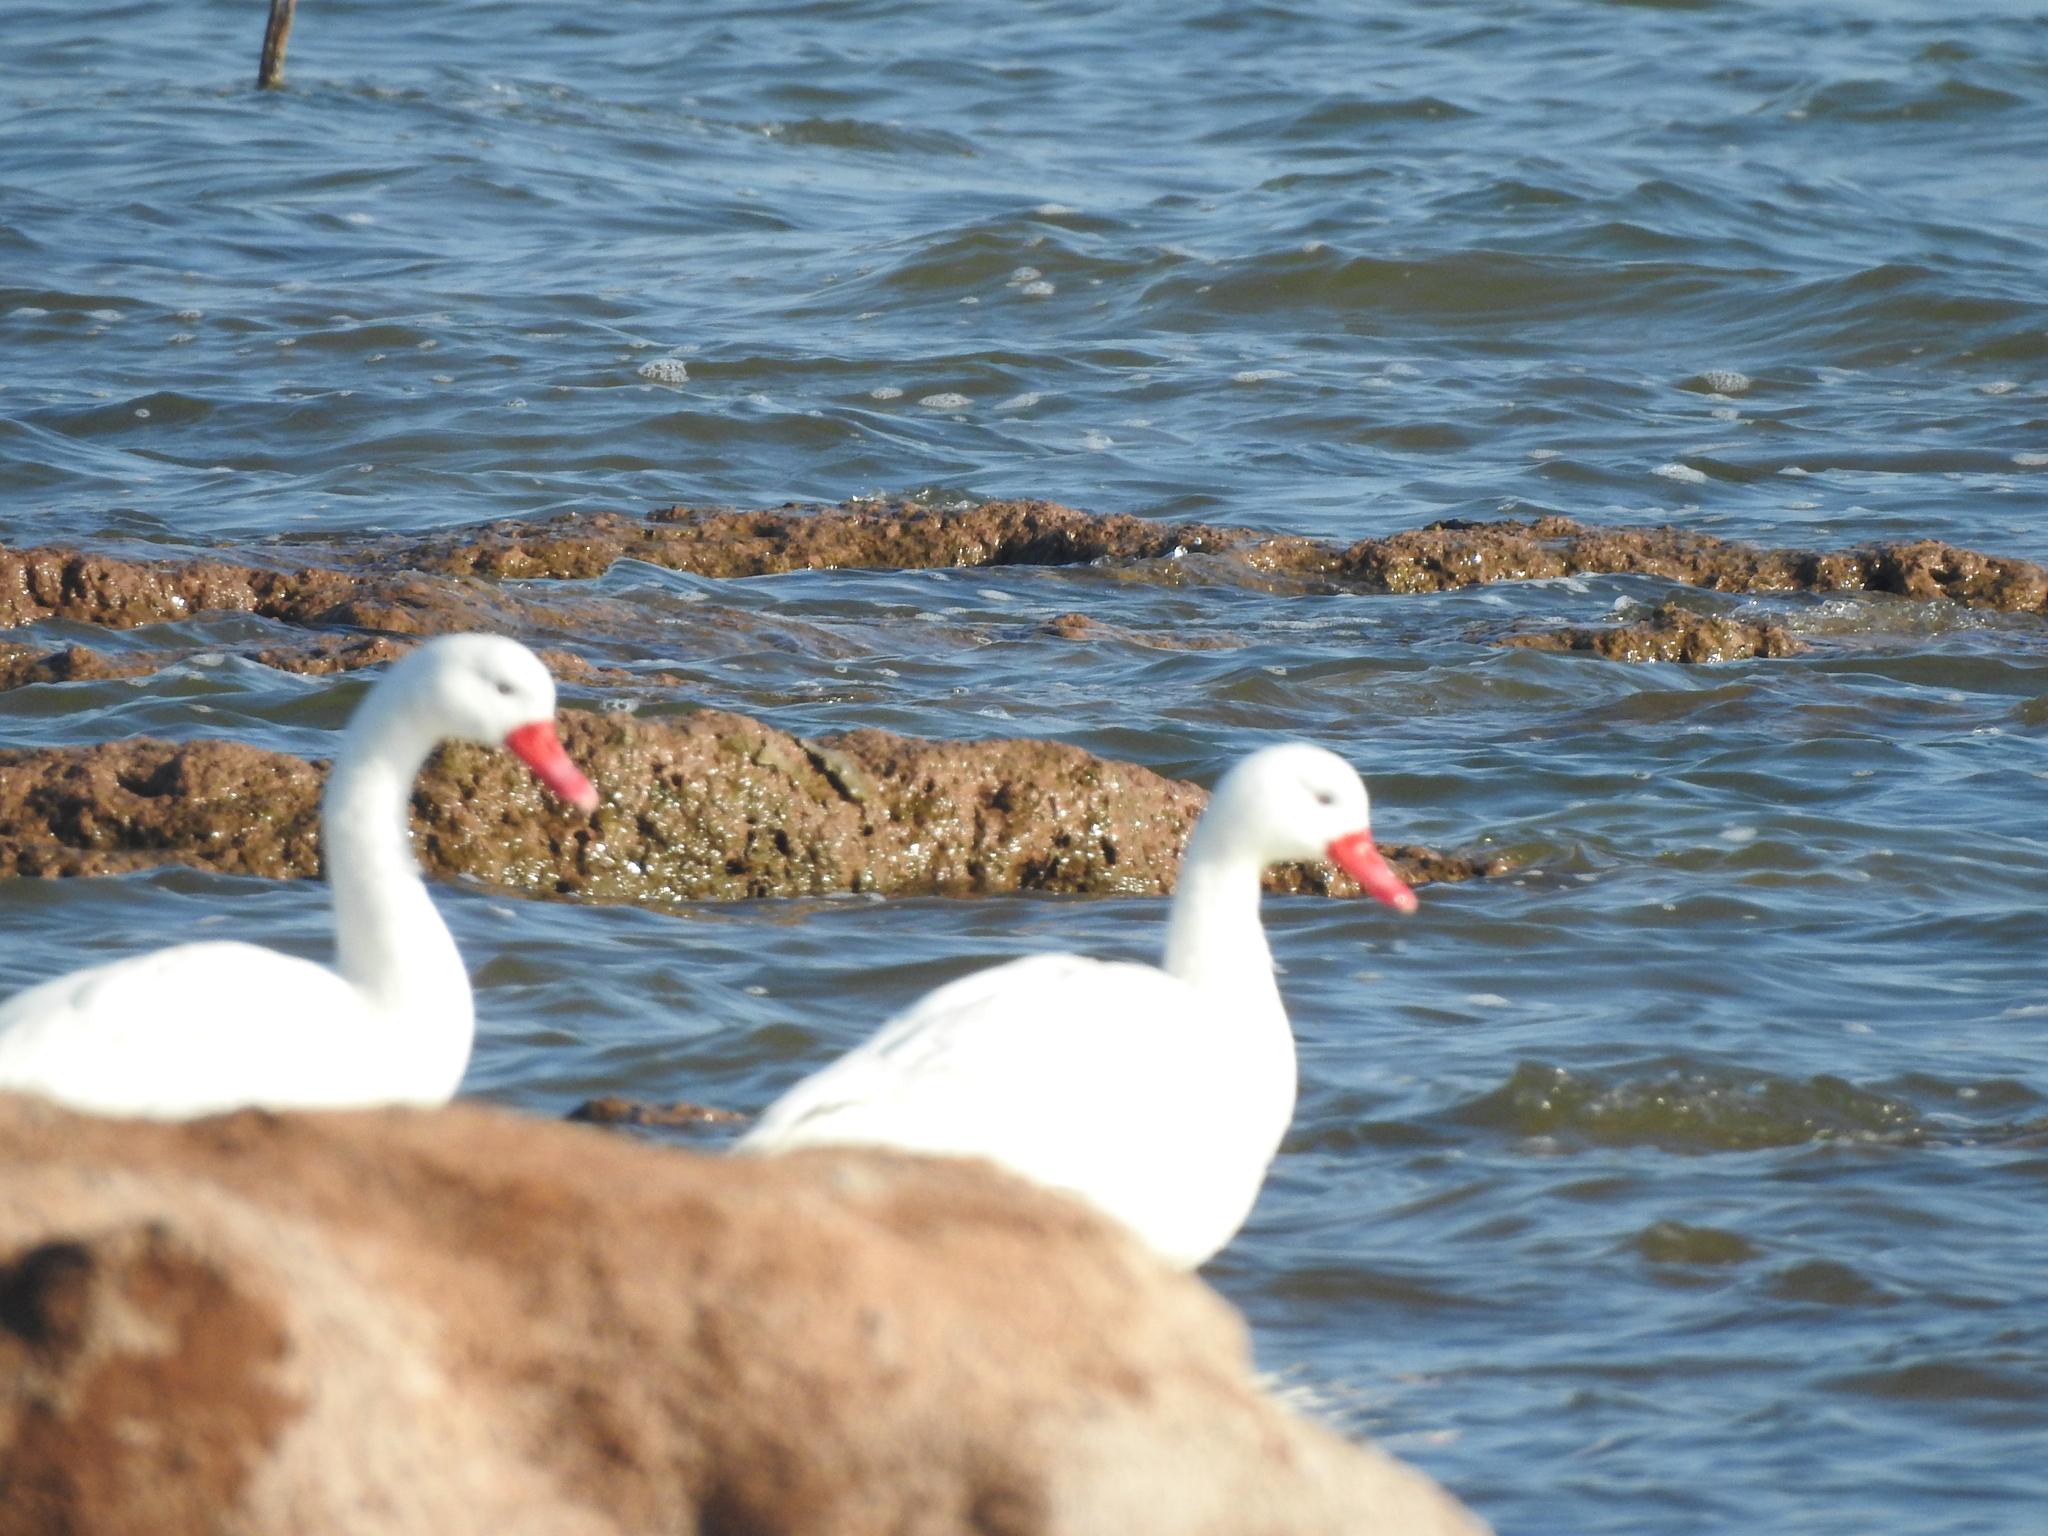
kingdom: Animalia
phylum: Chordata
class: Aves
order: Anseriformes
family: Anatidae
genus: Coscoroba
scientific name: Coscoroba coscoroba
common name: Coscoroba swan
